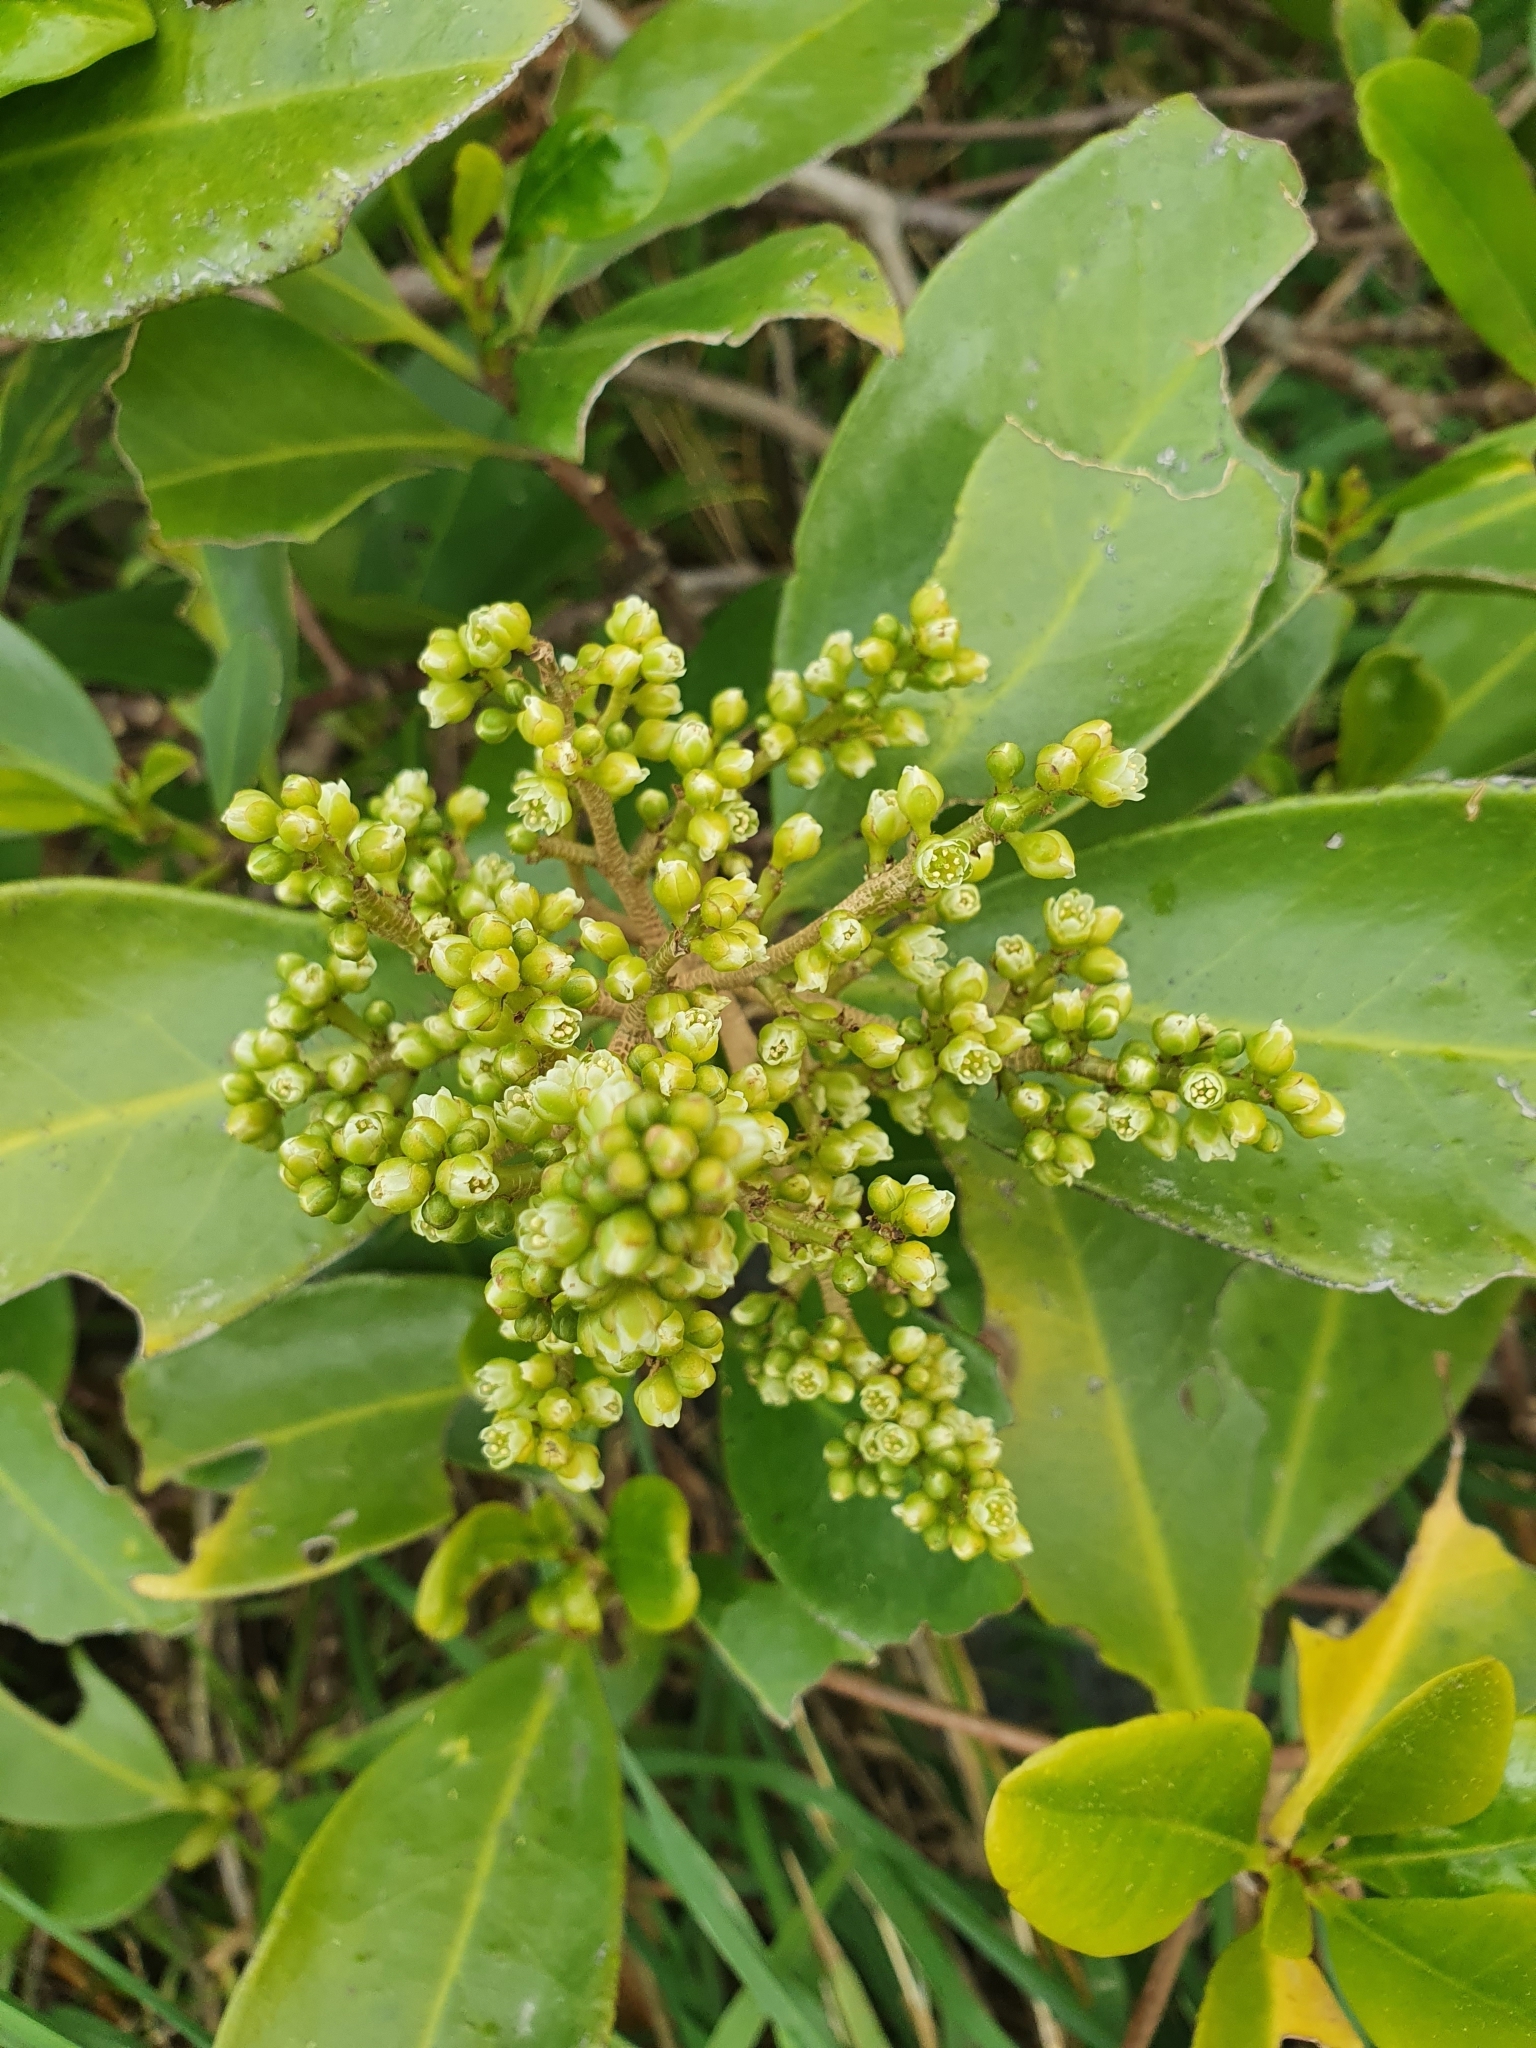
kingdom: Plantae
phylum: Tracheophyta
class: Magnoliopsida
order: Cucurbitales
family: Corynocarpaceae
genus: Corynocarpus
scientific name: Corynocarpus laevigatus
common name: New zealand laurel
